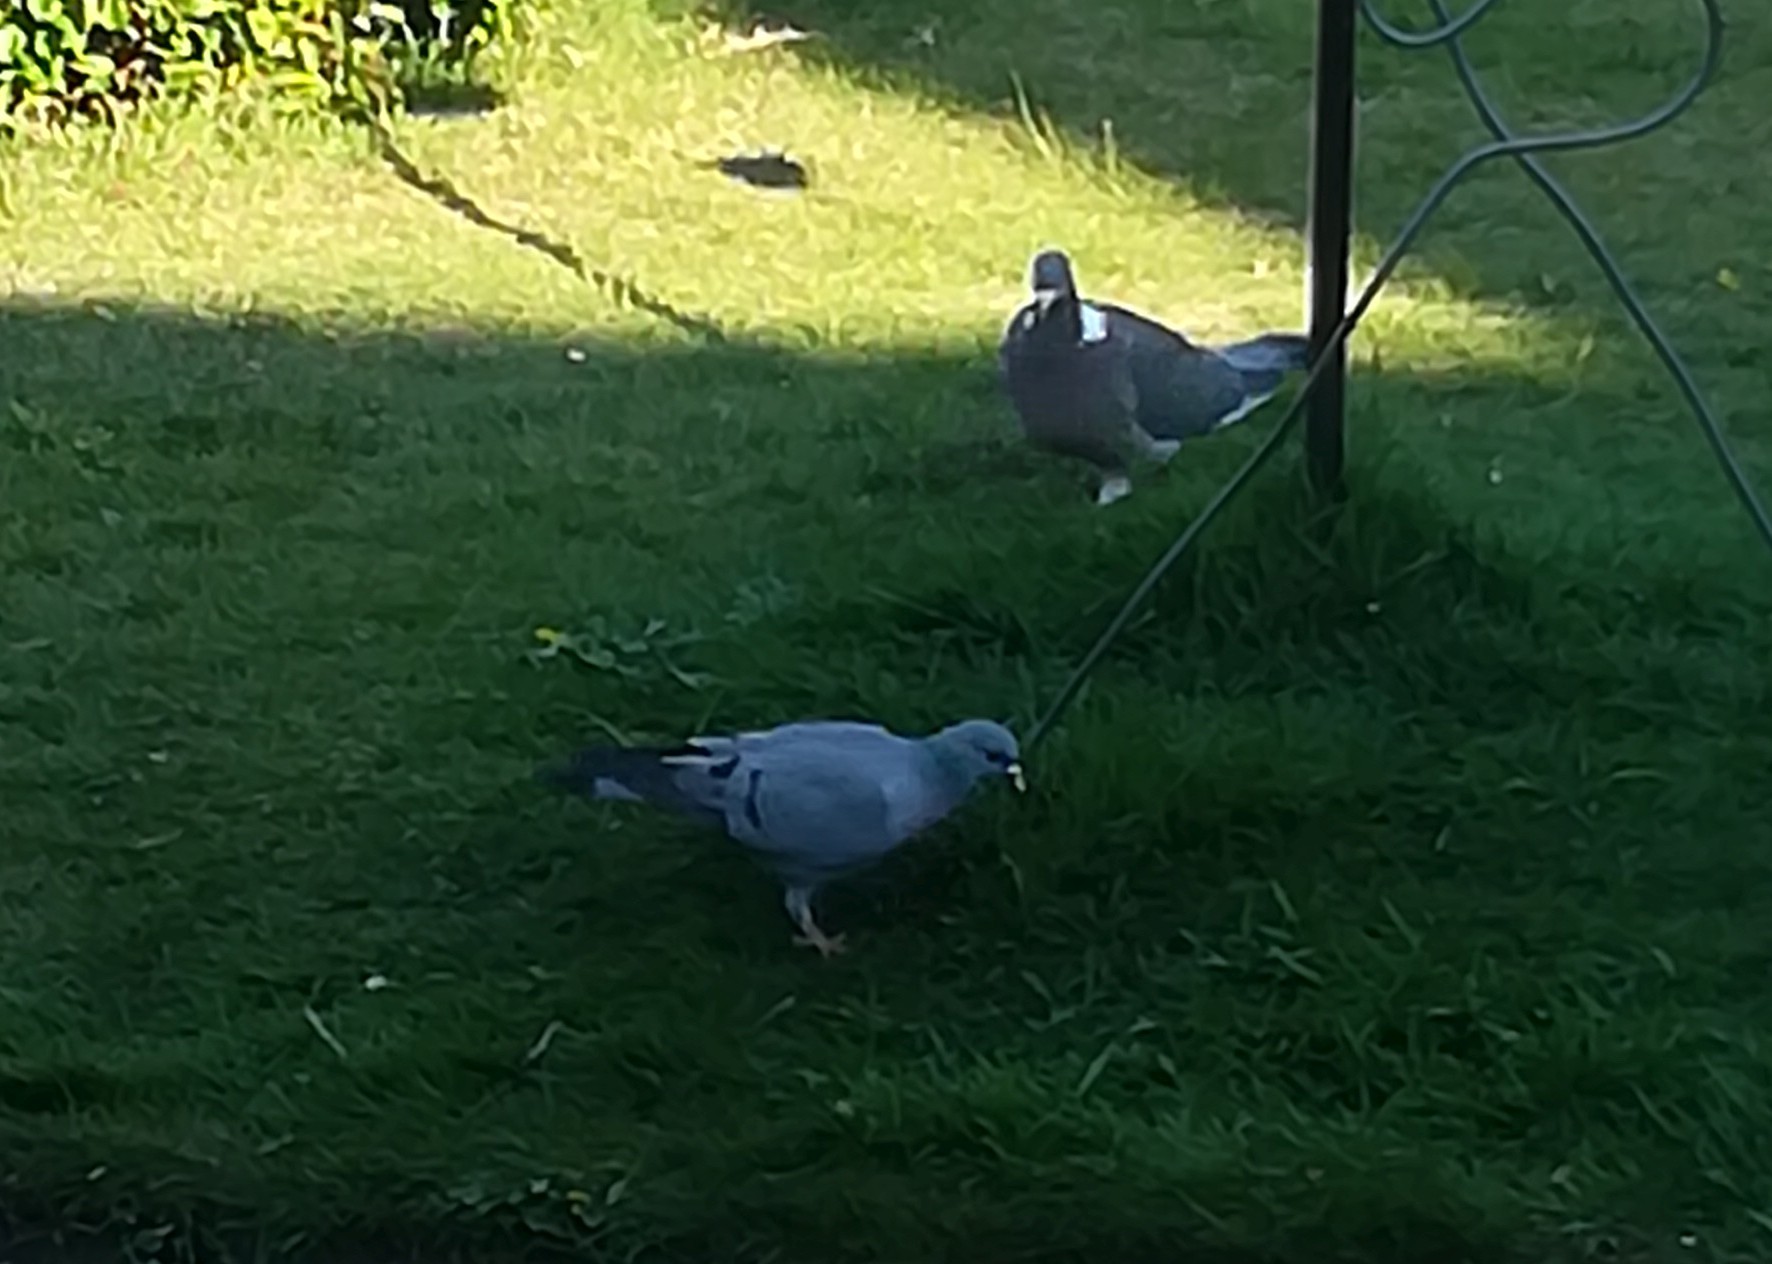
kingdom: Animalia
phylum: Chordata
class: Aves
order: Columbiformes
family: Columbidae
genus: Columba
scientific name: Columba oenas
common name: Stock dove
